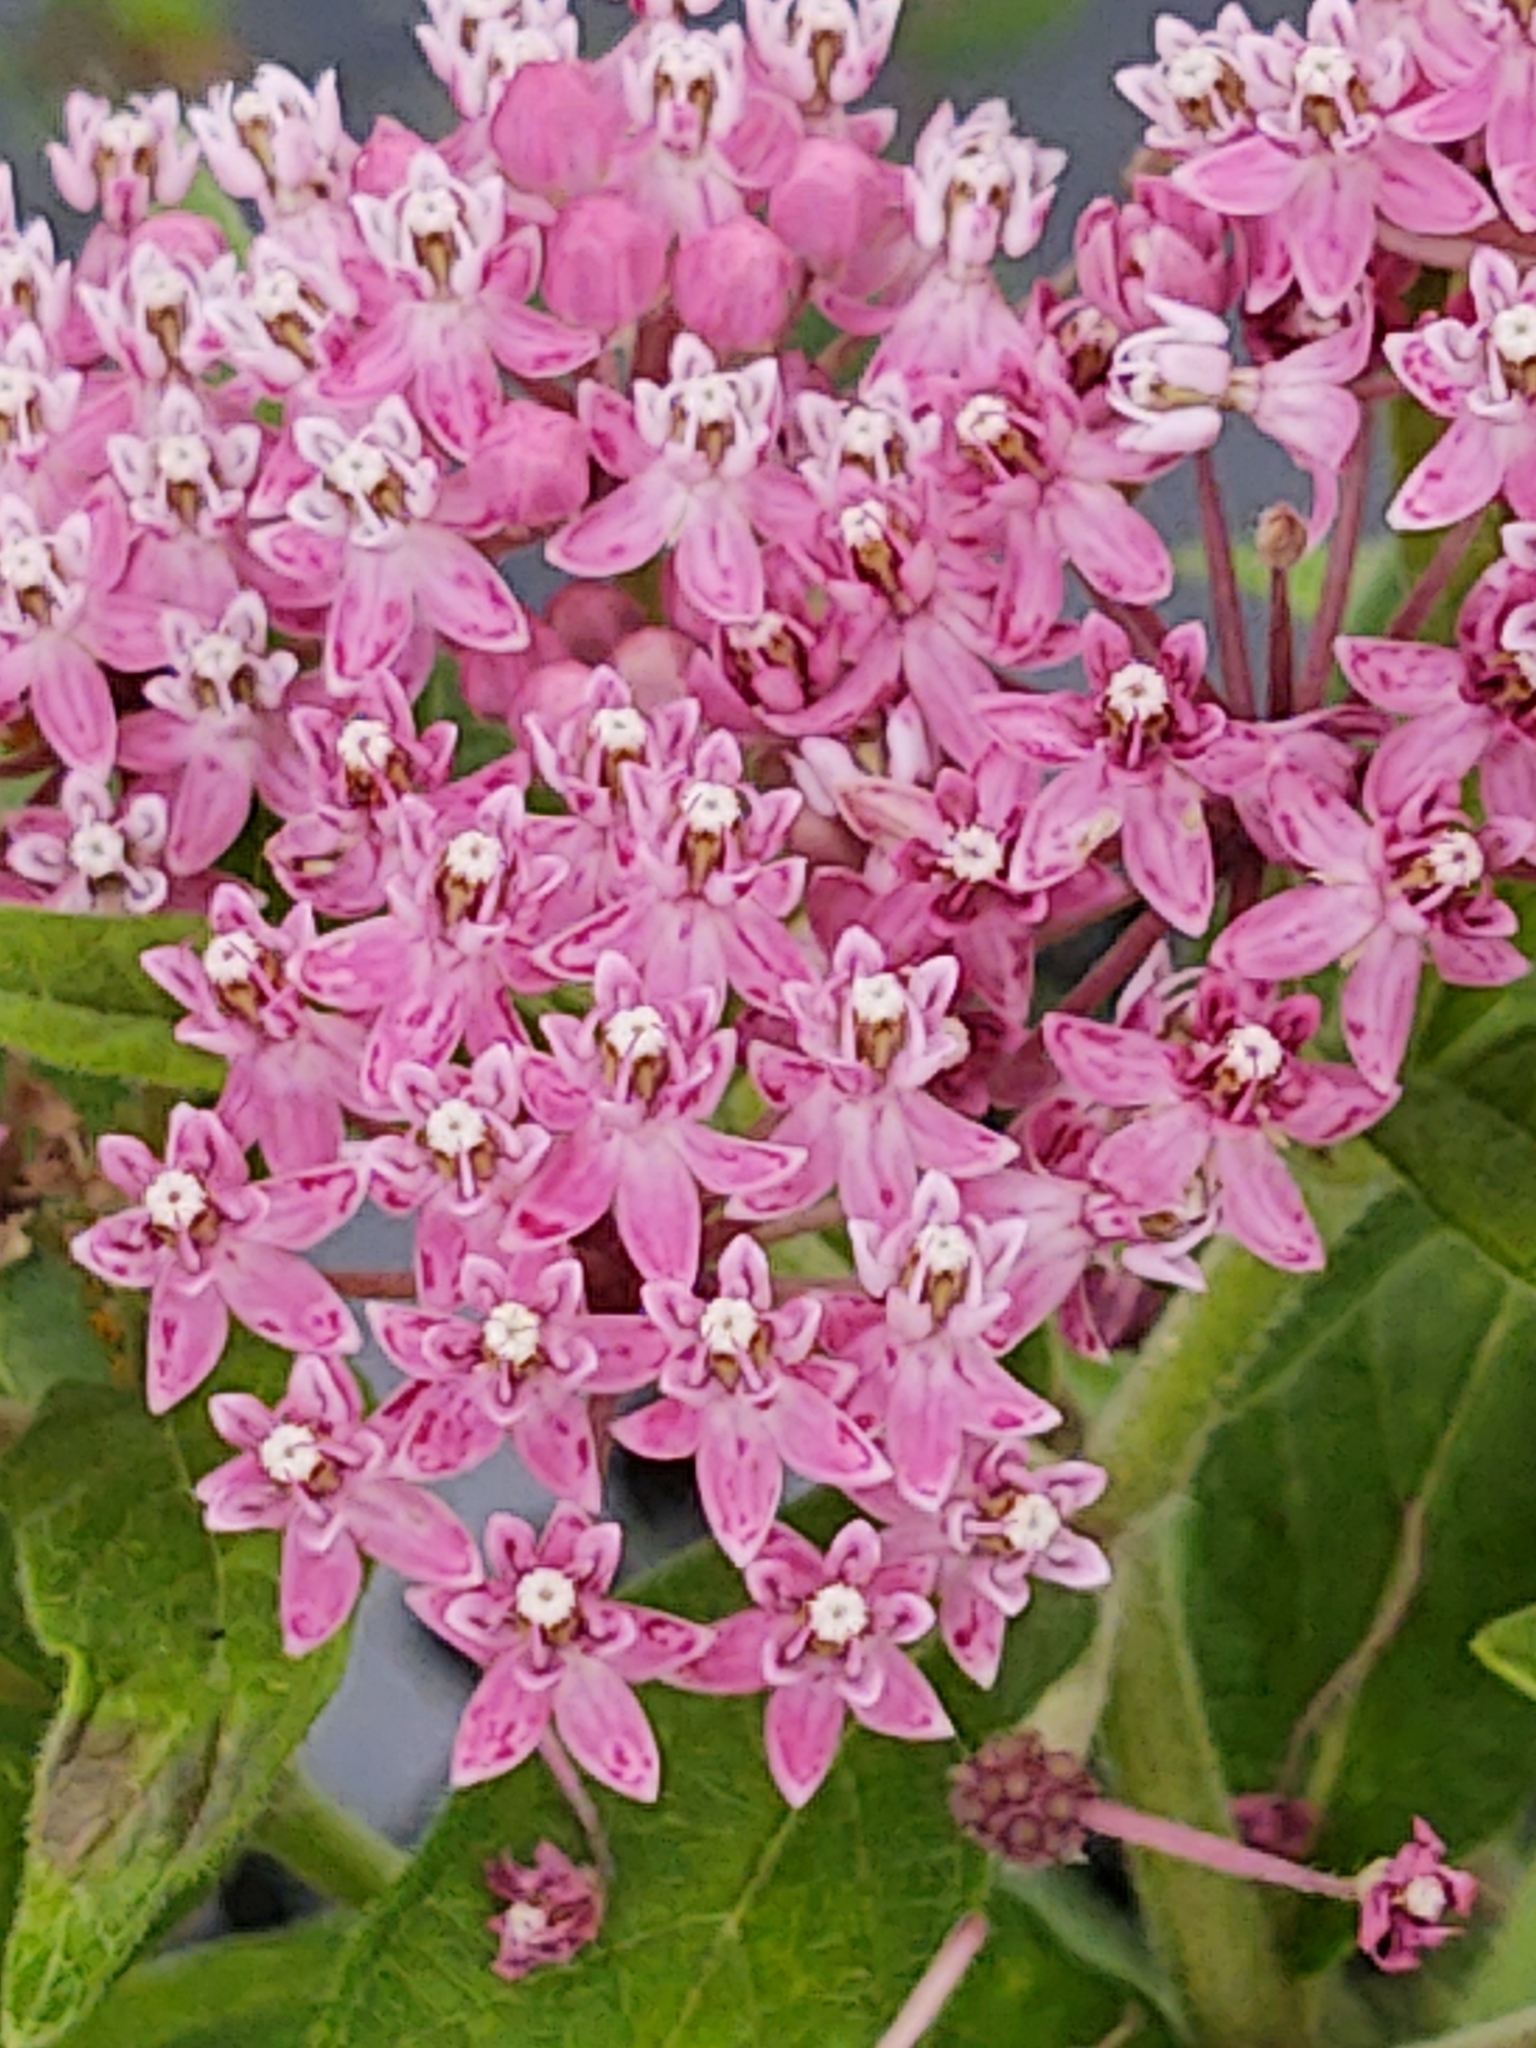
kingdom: Plantae
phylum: Tracheophyta
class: Magnoliopsida
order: Gentianales
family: Apocynaceae
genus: Asclepias
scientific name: Asclepias incarnata
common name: Swamp milkweed
